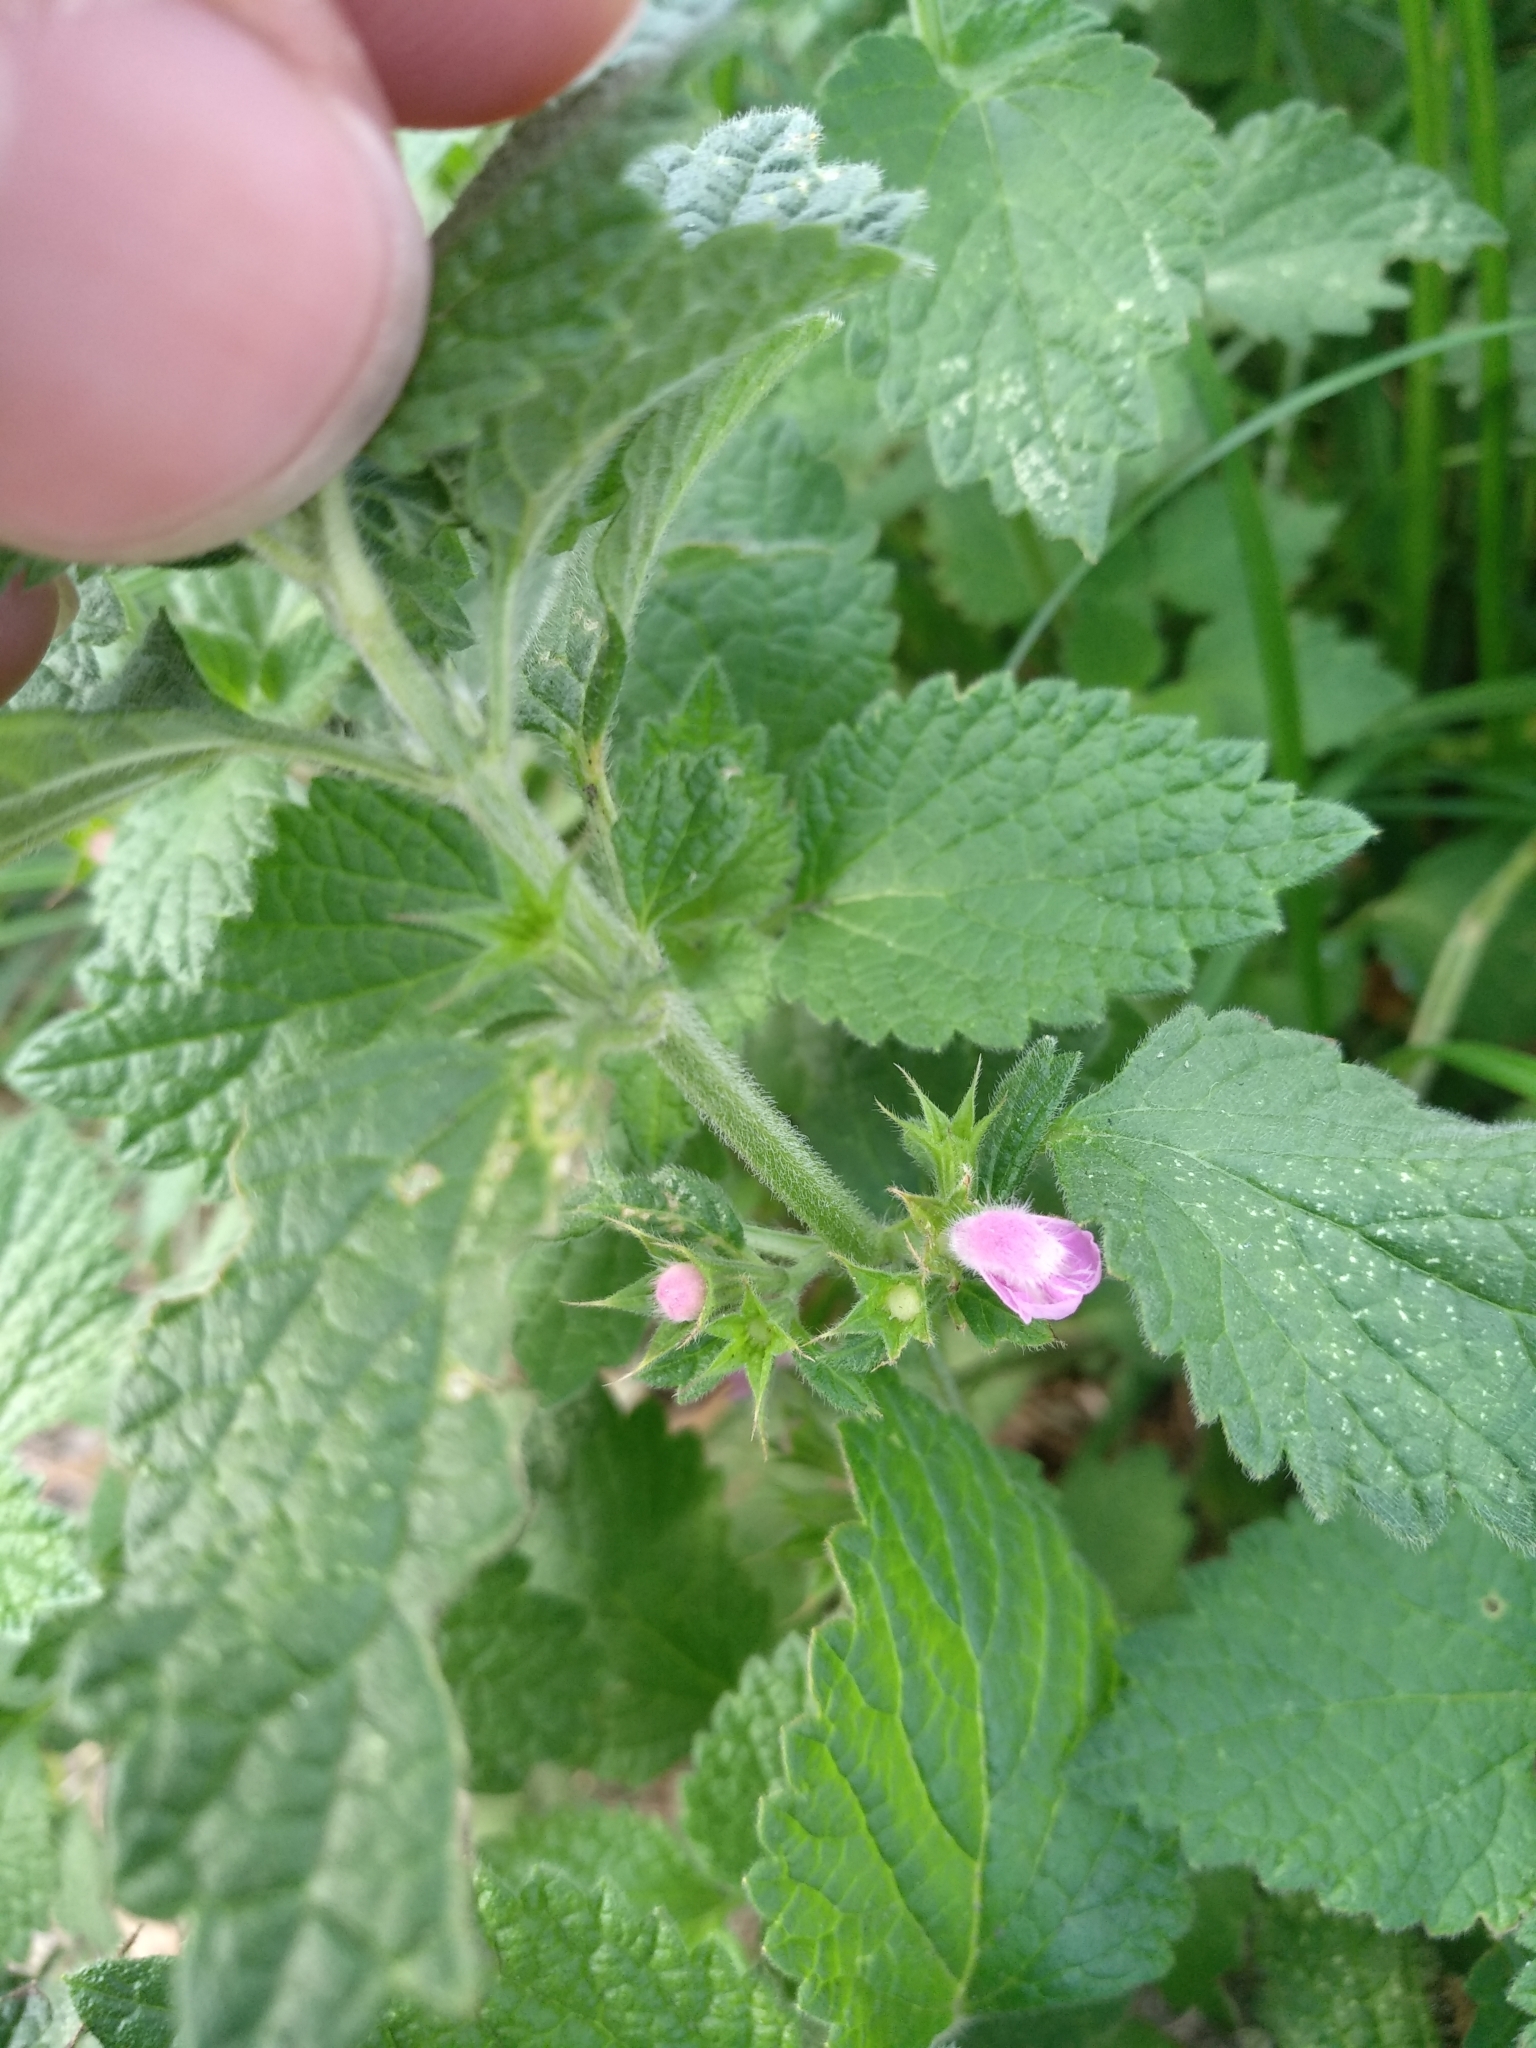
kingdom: Plantae
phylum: Tracheophyta
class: Magnoliopsida
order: Lamiales
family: Lamiaceae
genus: Ballota
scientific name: Ballota nigra
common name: Black horehound
